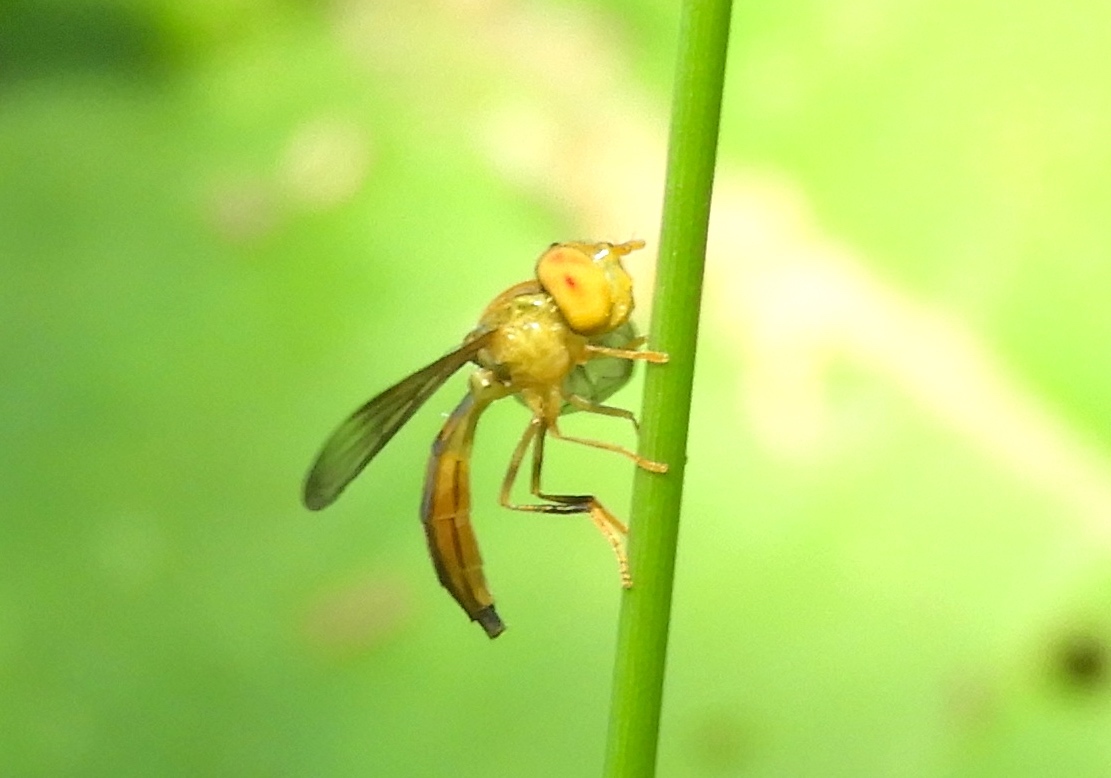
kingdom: Animalia
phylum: Arthropoda
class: Insecta
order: Diptera
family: Syrphidae
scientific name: Syrphidae
